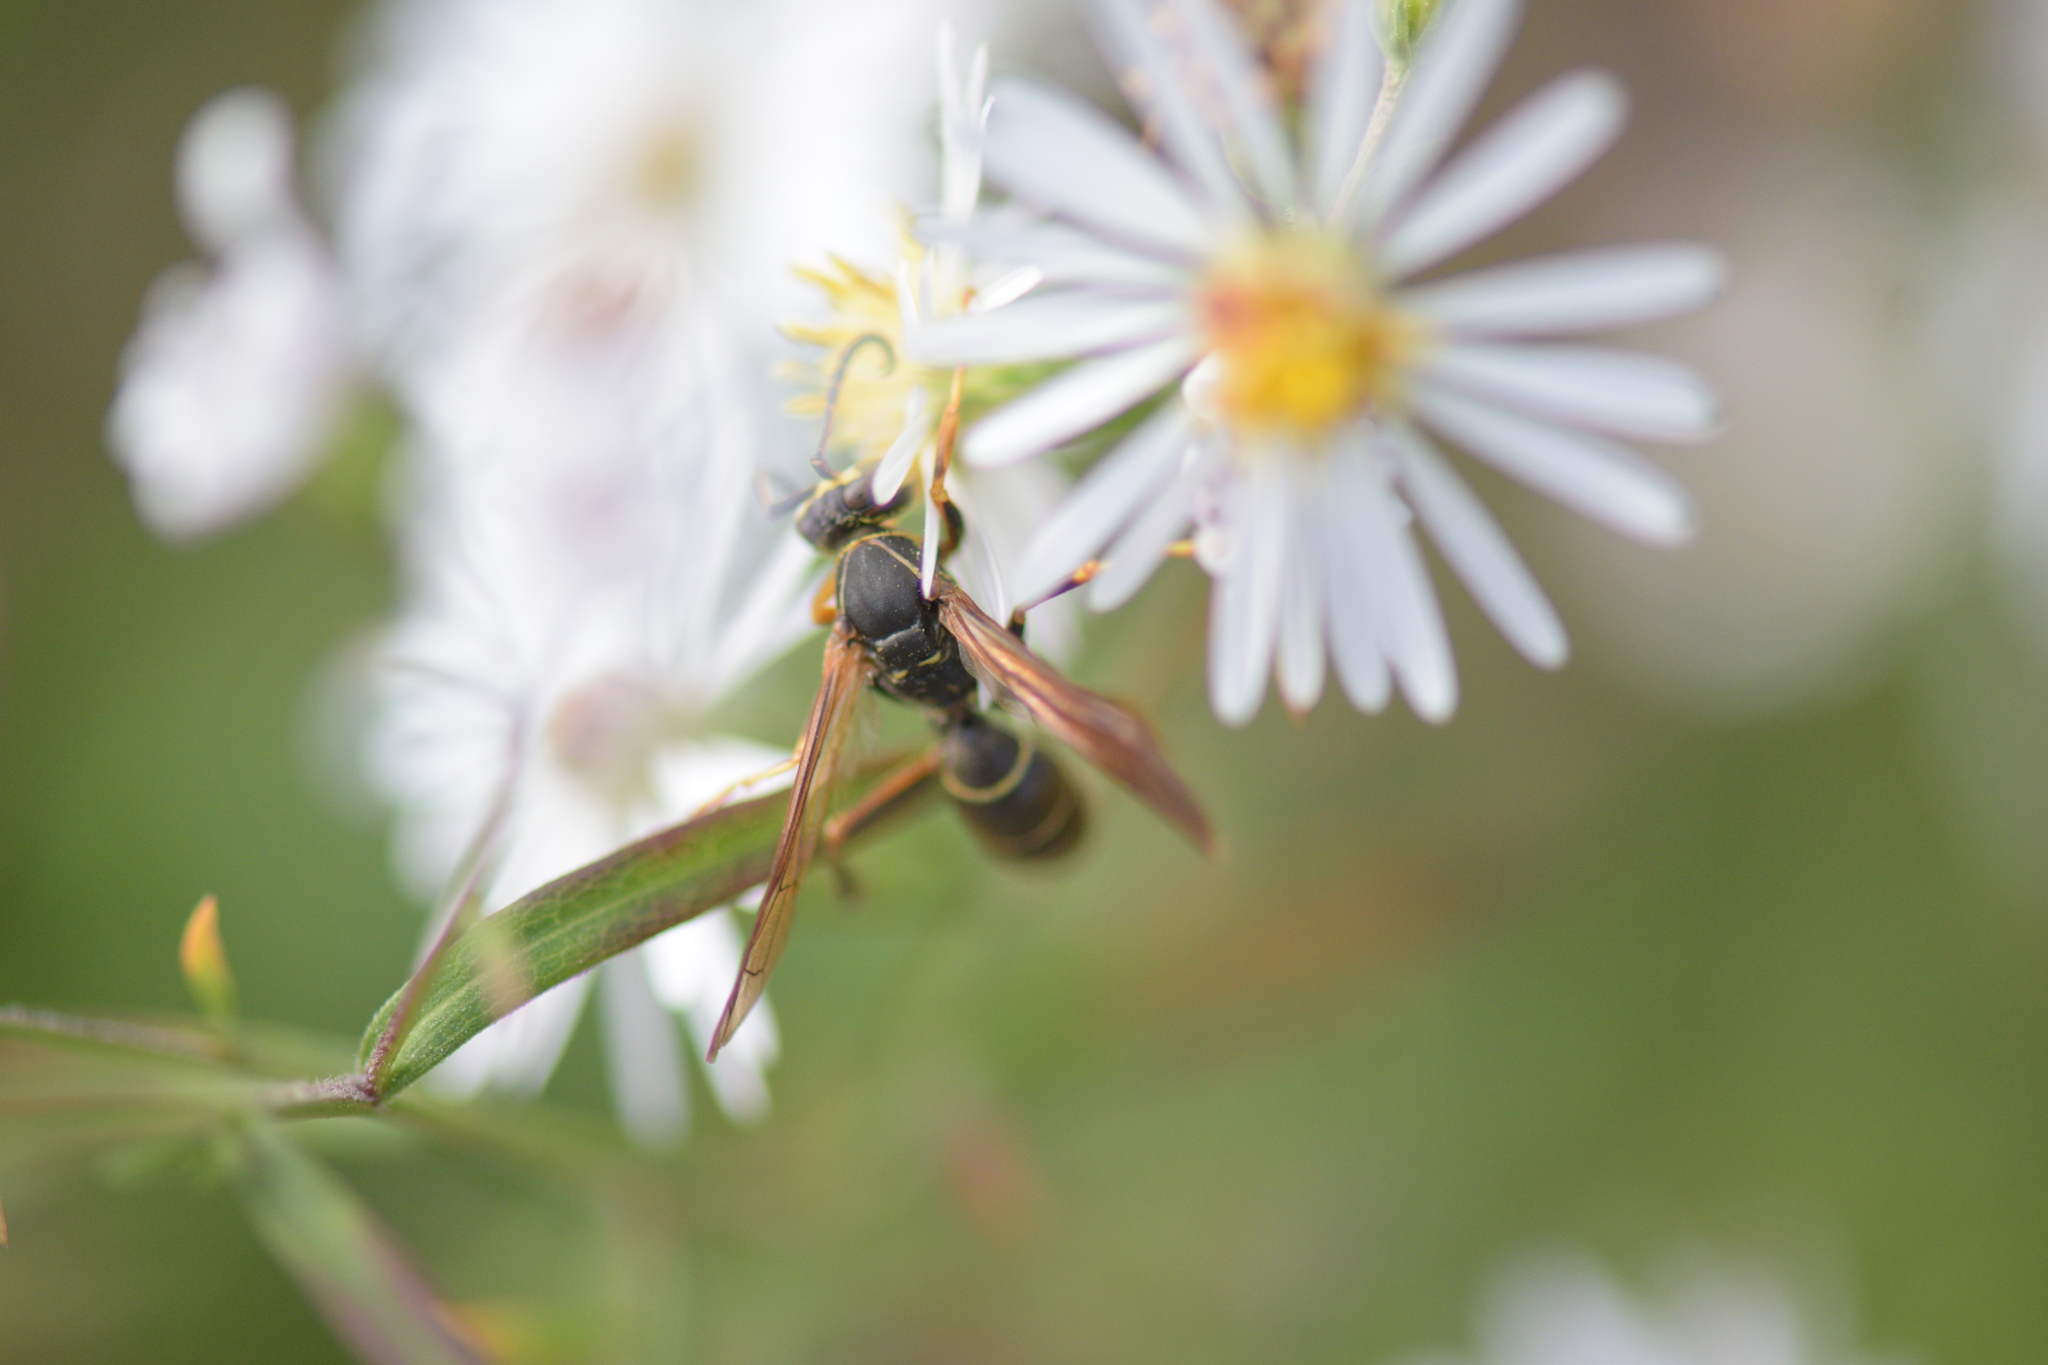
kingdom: Animalia
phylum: Arthropoda
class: Insecta
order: Hymenoptera
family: Eumenidae
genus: Polistes
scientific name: Polistes fuscatus
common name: Dark paper wasp
